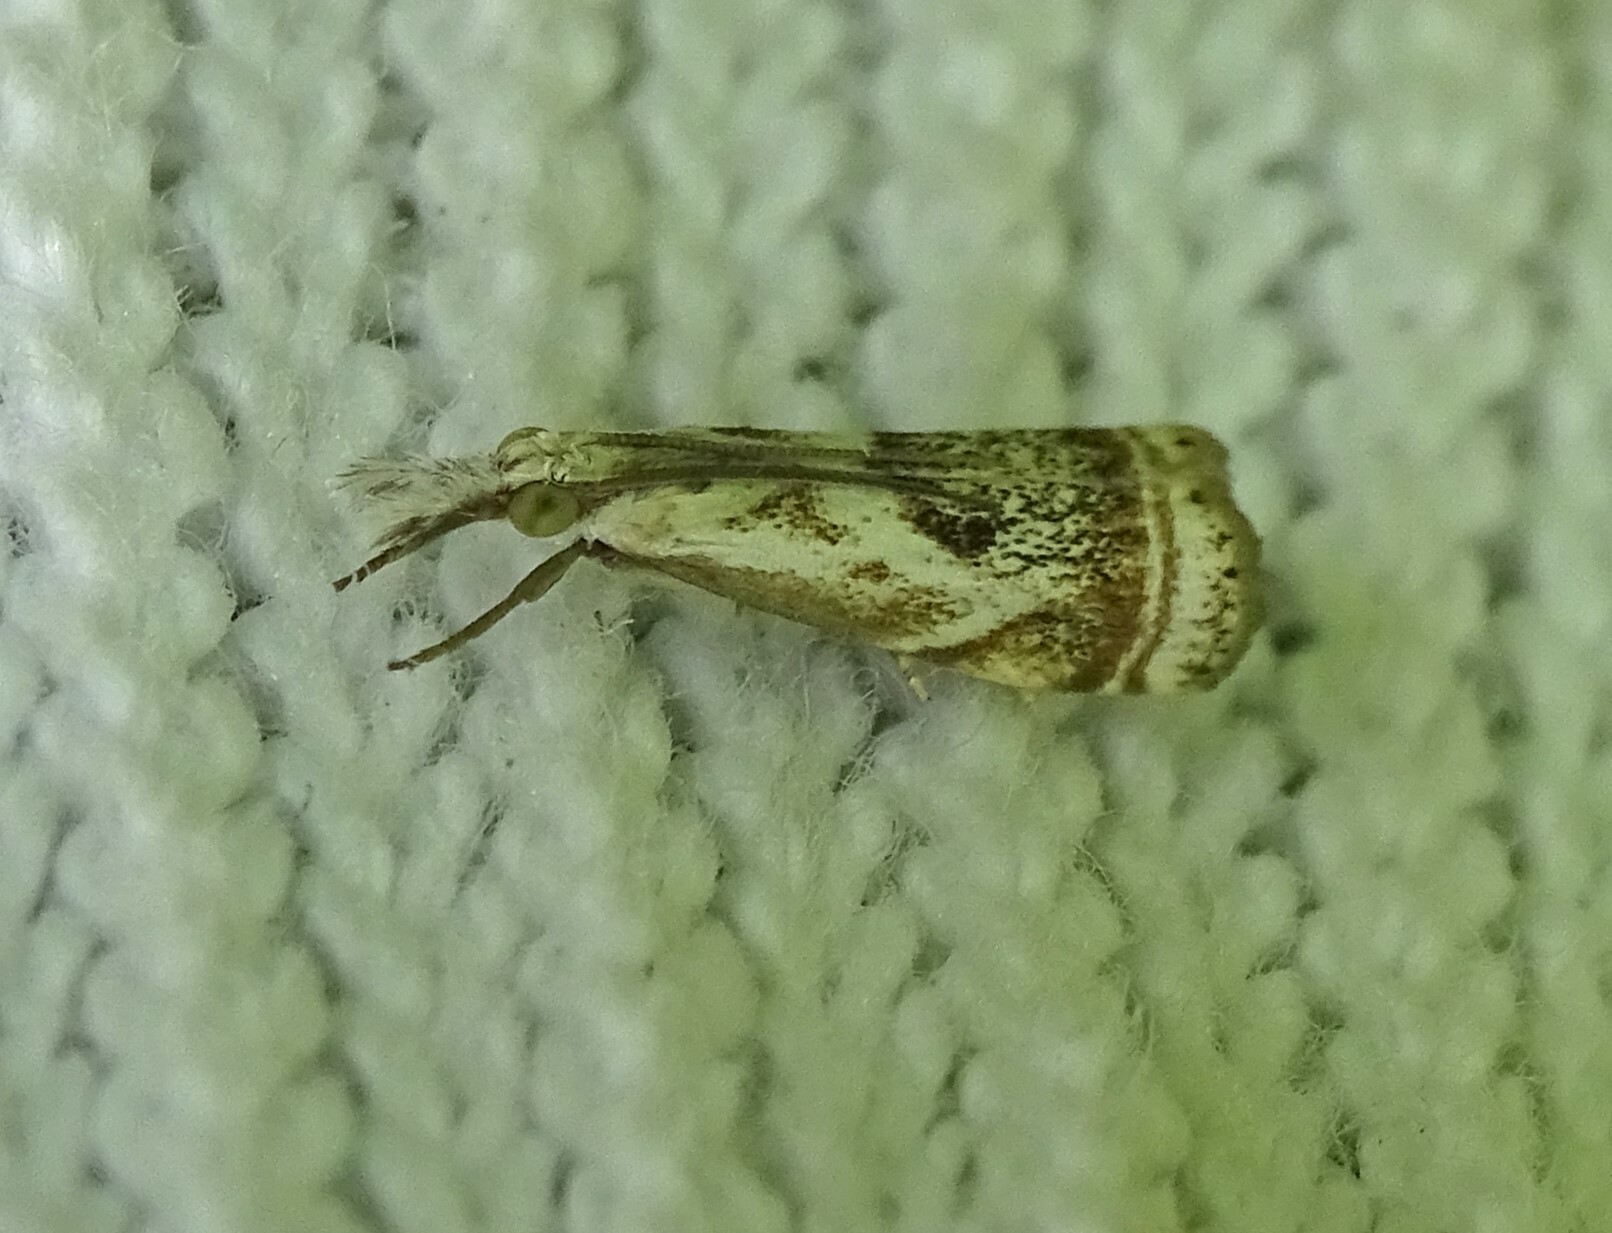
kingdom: Animalia
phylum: Arthropoda
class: Insecta
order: Lepidoptera
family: Crambidae
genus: Microcrambus
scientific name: Microcrambus elegans
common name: Elegant grass-veneer
